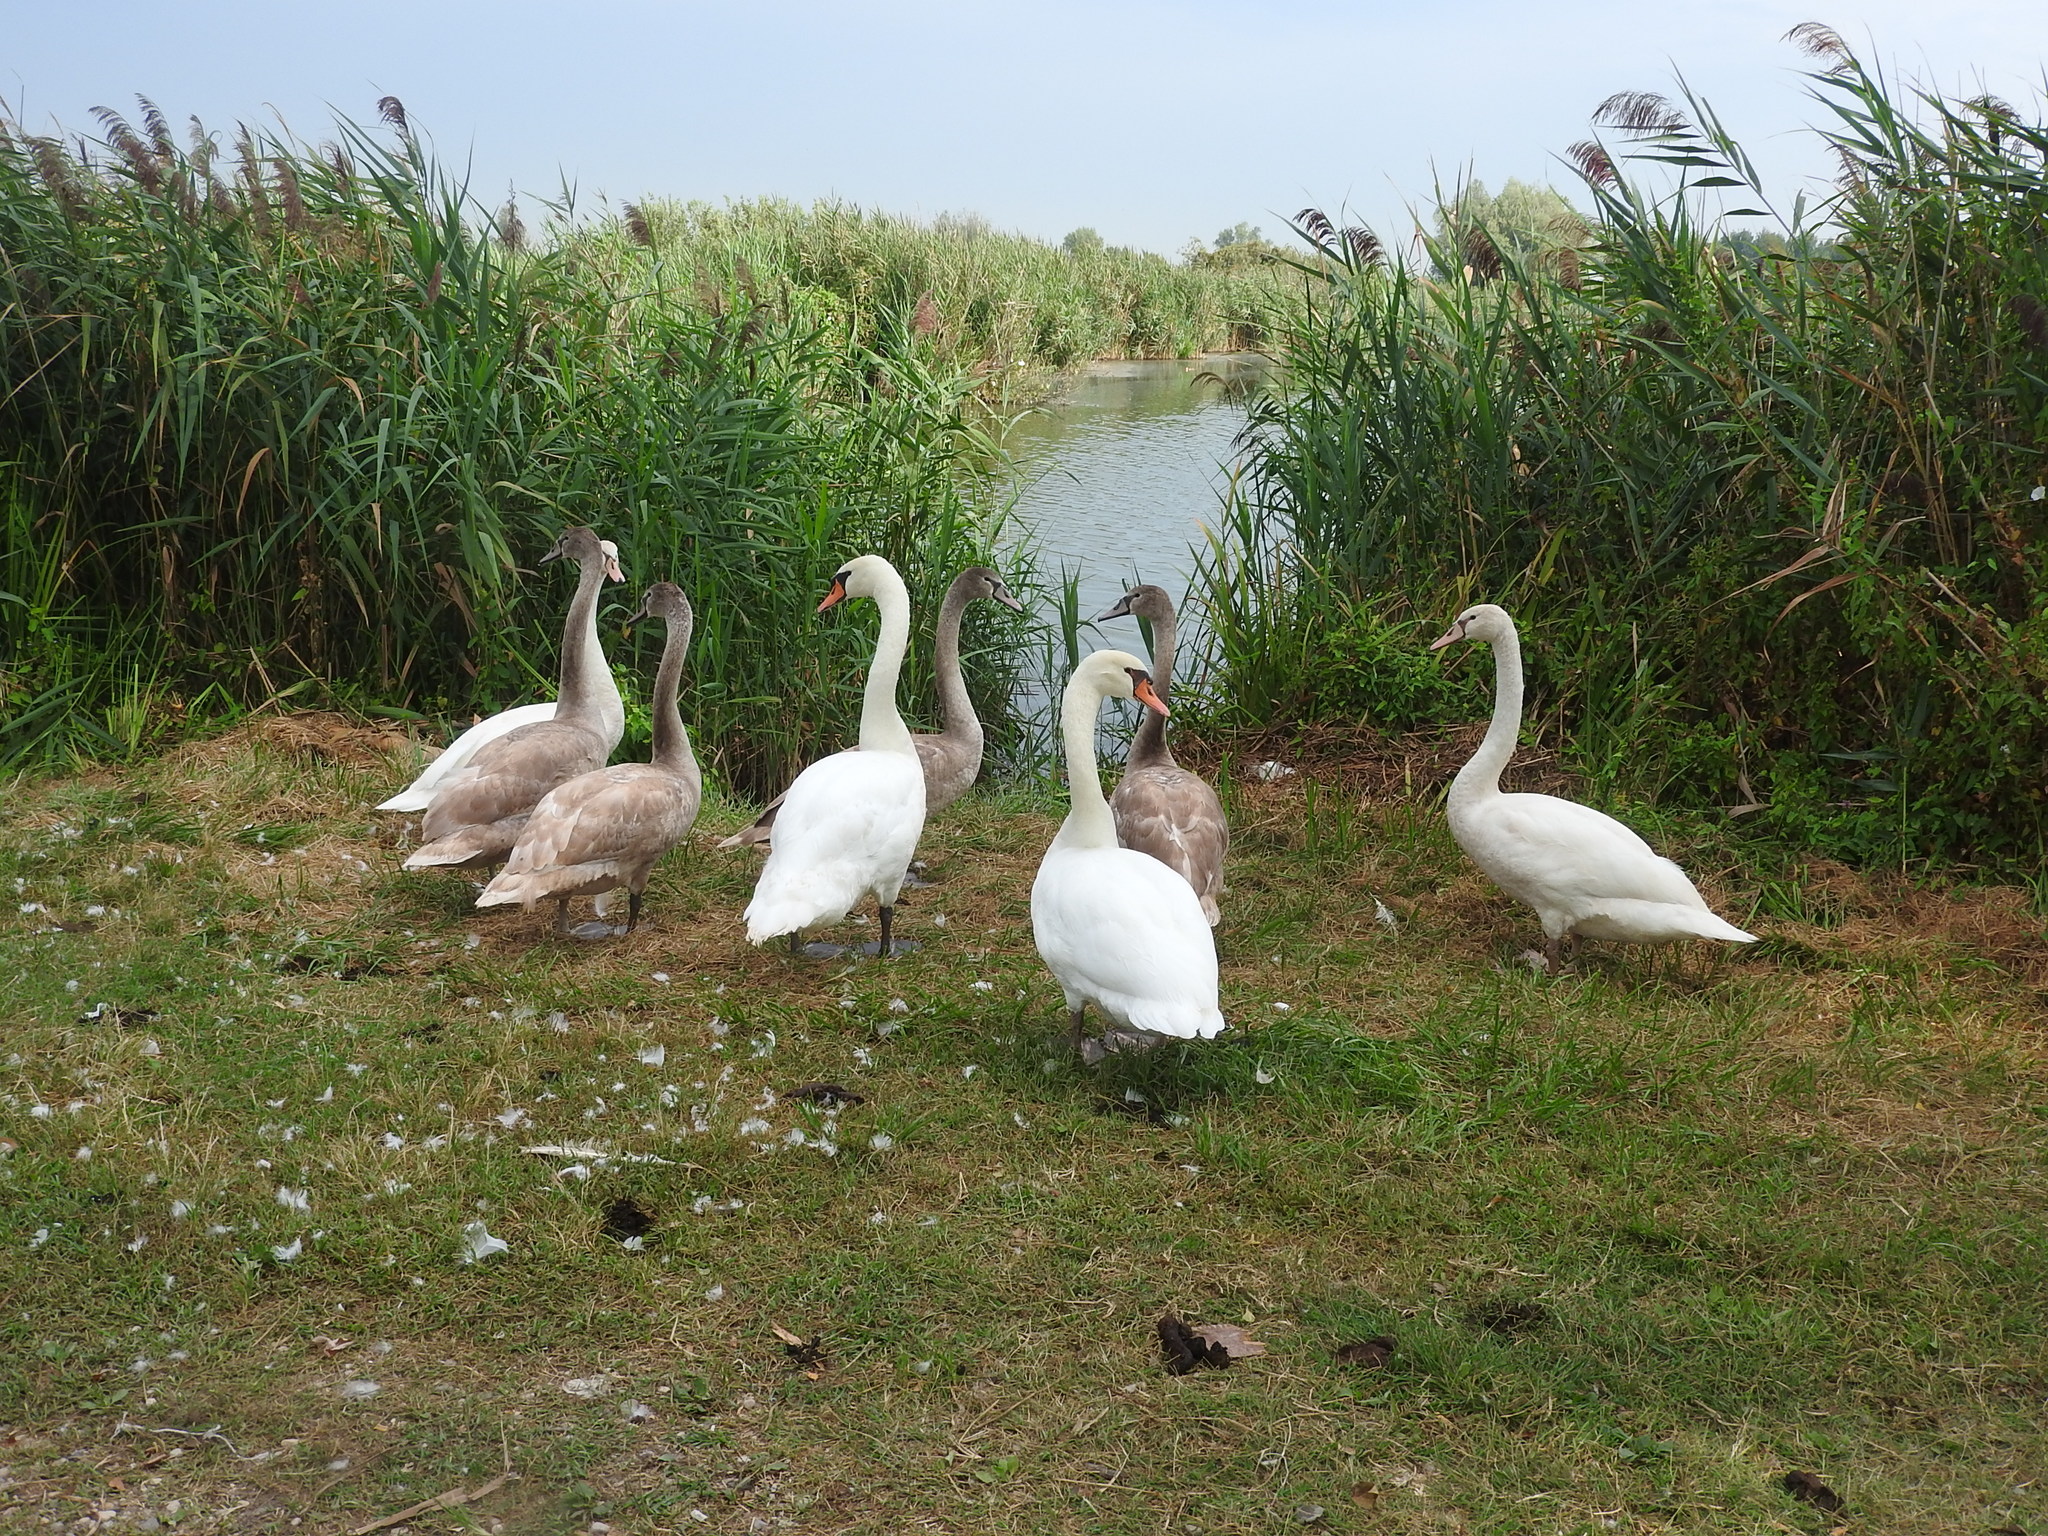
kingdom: Animalia
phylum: Chordata
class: Aves
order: Anseriformes
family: Anatidae
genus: Cygnus
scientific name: Cygnus olor
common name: Mute swan
